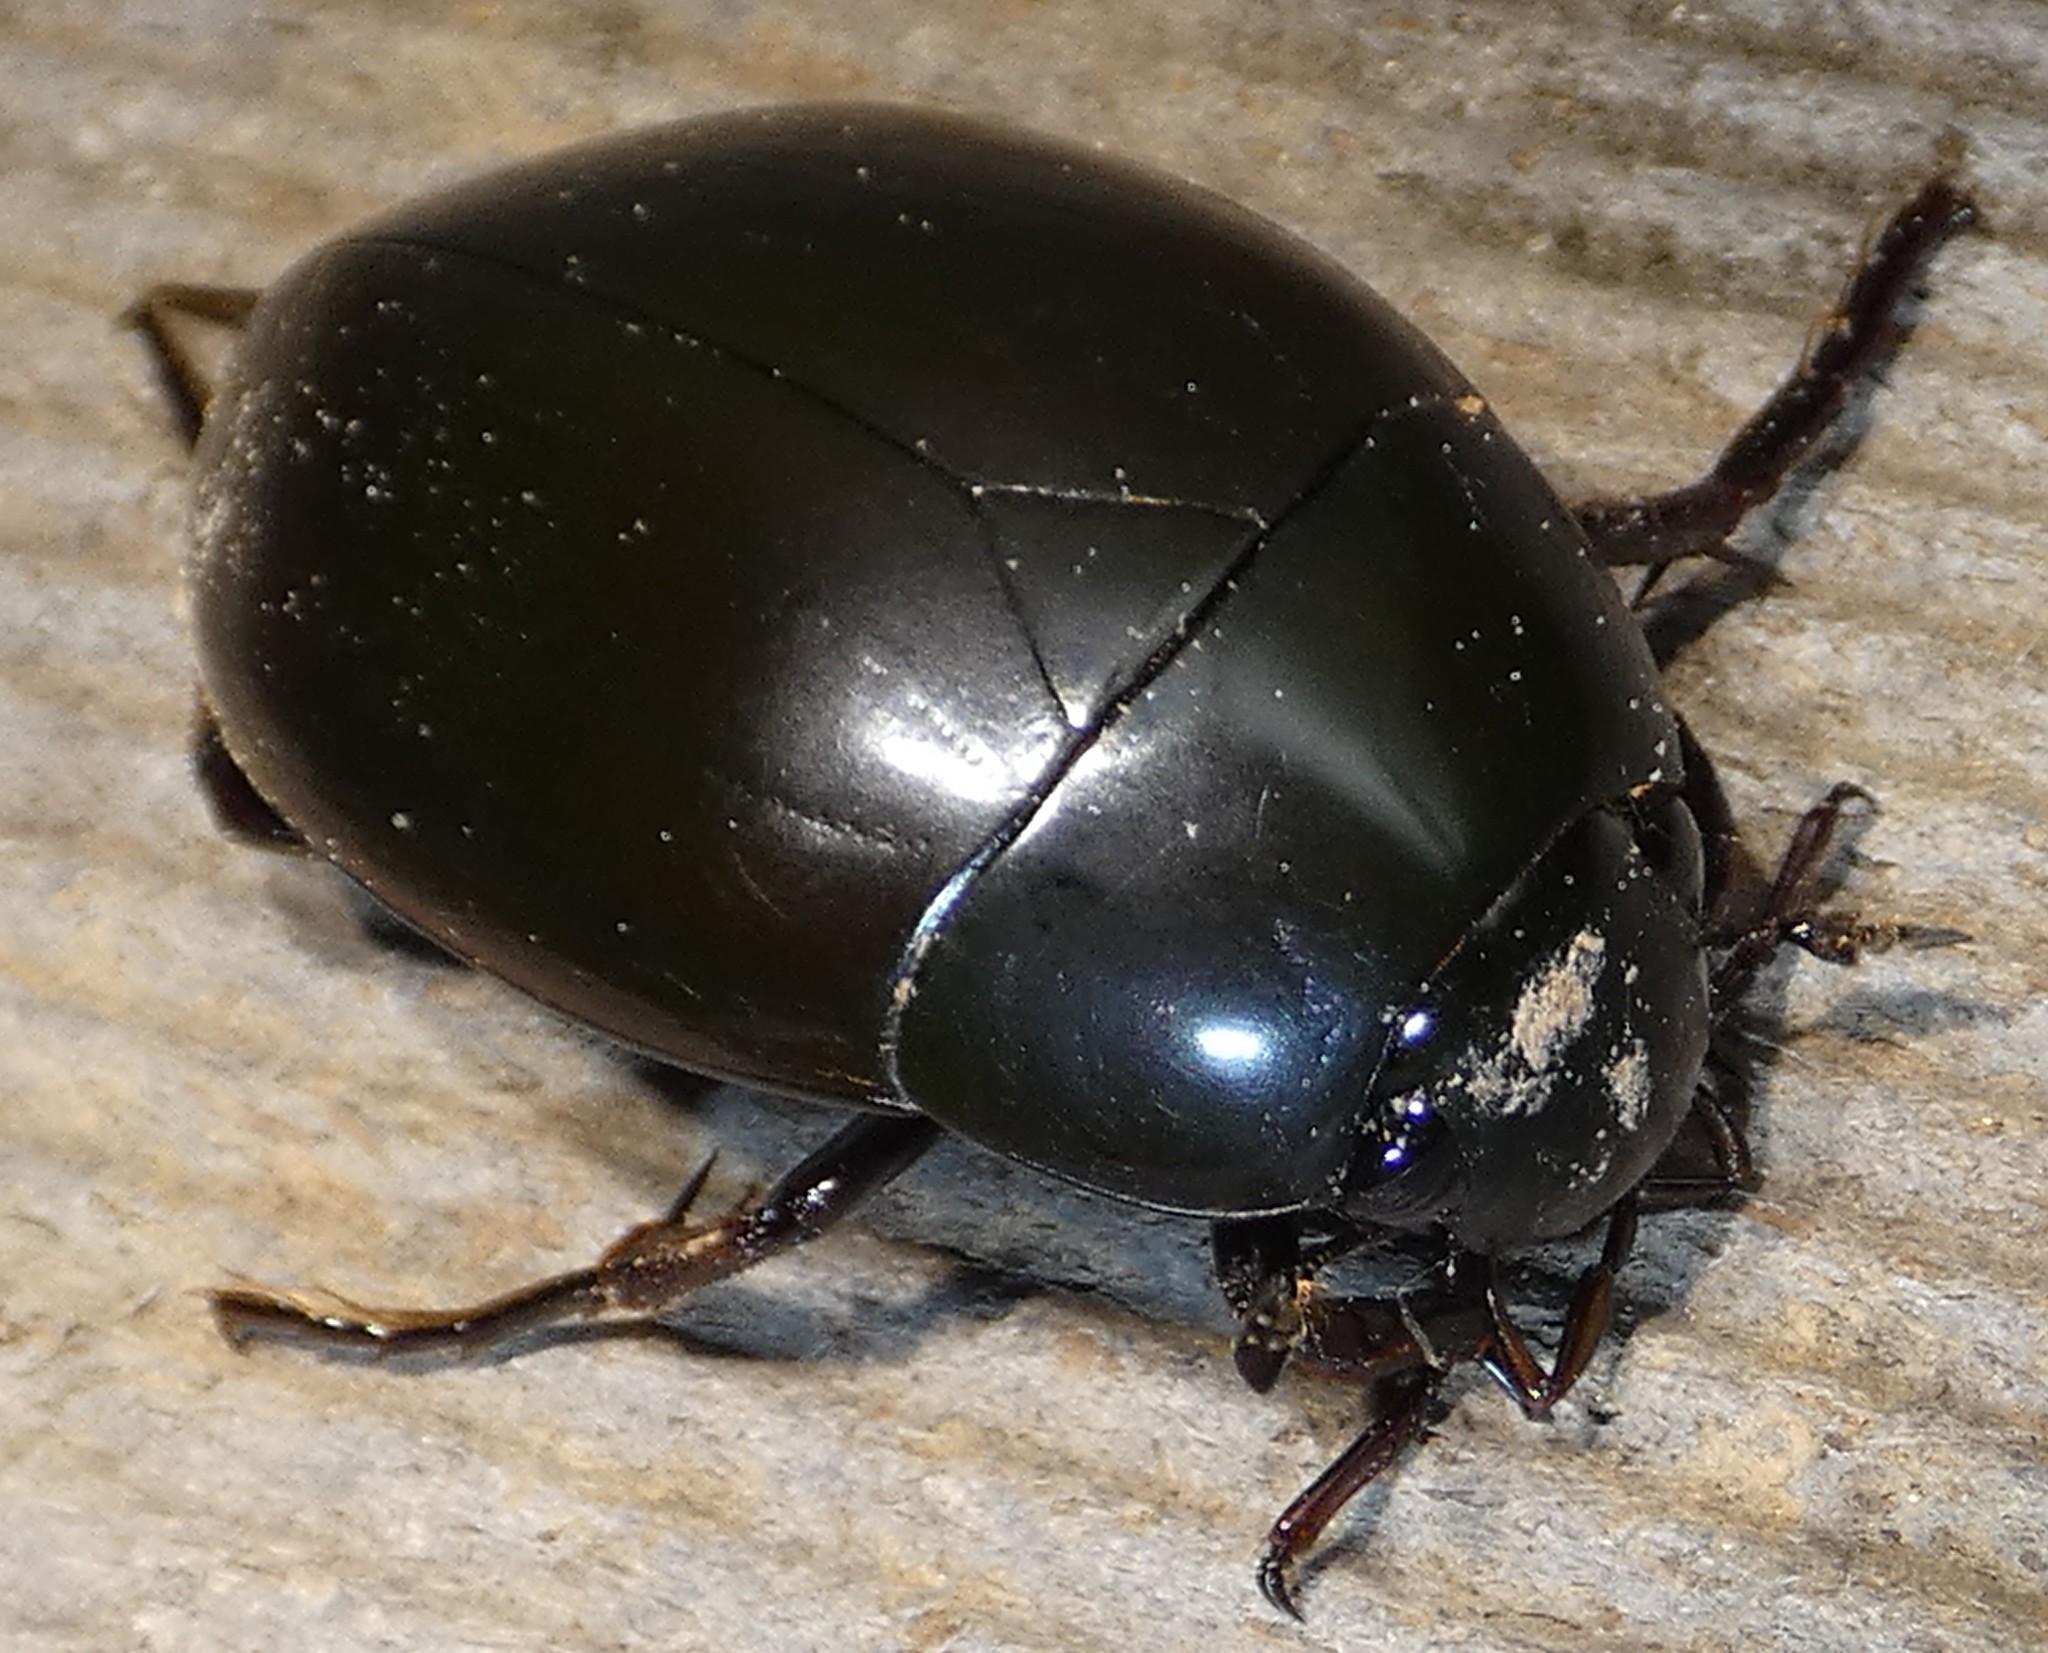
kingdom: Animalia
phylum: Arthropoda
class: Insecta
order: Coleoptera
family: Hydrophilidae
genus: Hydrophilus
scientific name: Hydrophilus ovatus
